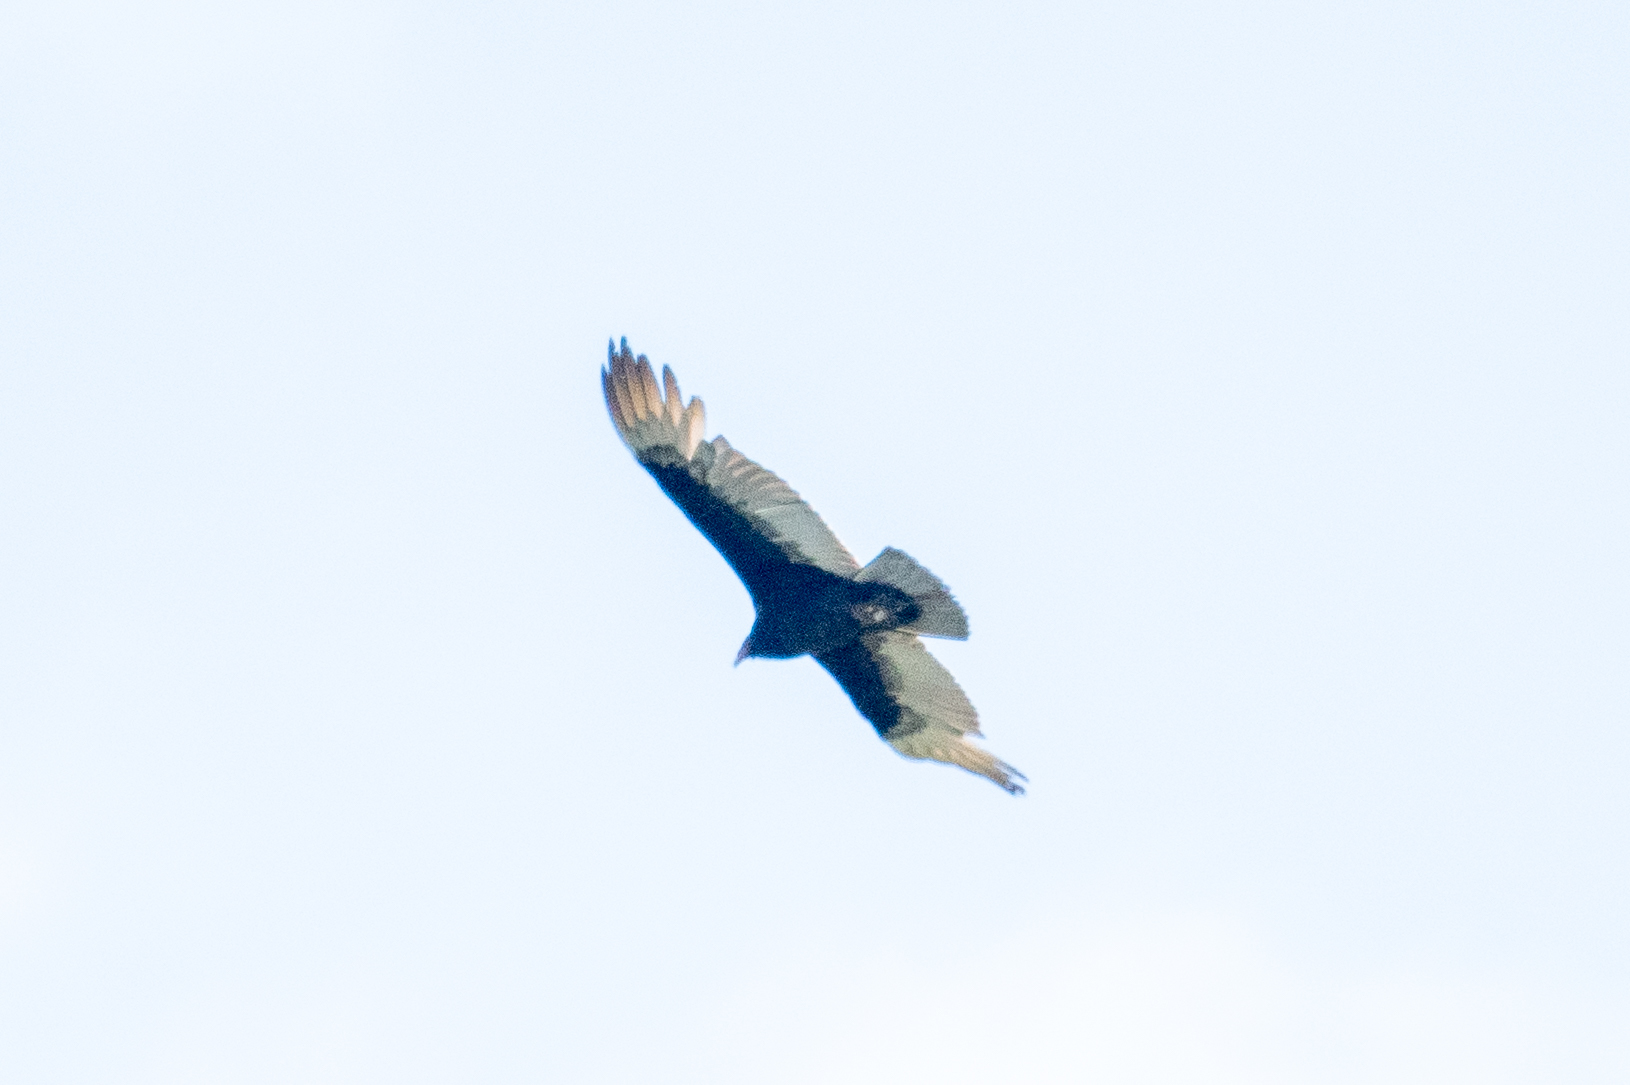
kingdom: Animalia
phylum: Chordata
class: Aves
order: Accipitriformes
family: Cathartidae
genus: Cathartes
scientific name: Cathartes aura
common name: Turkey vulture
